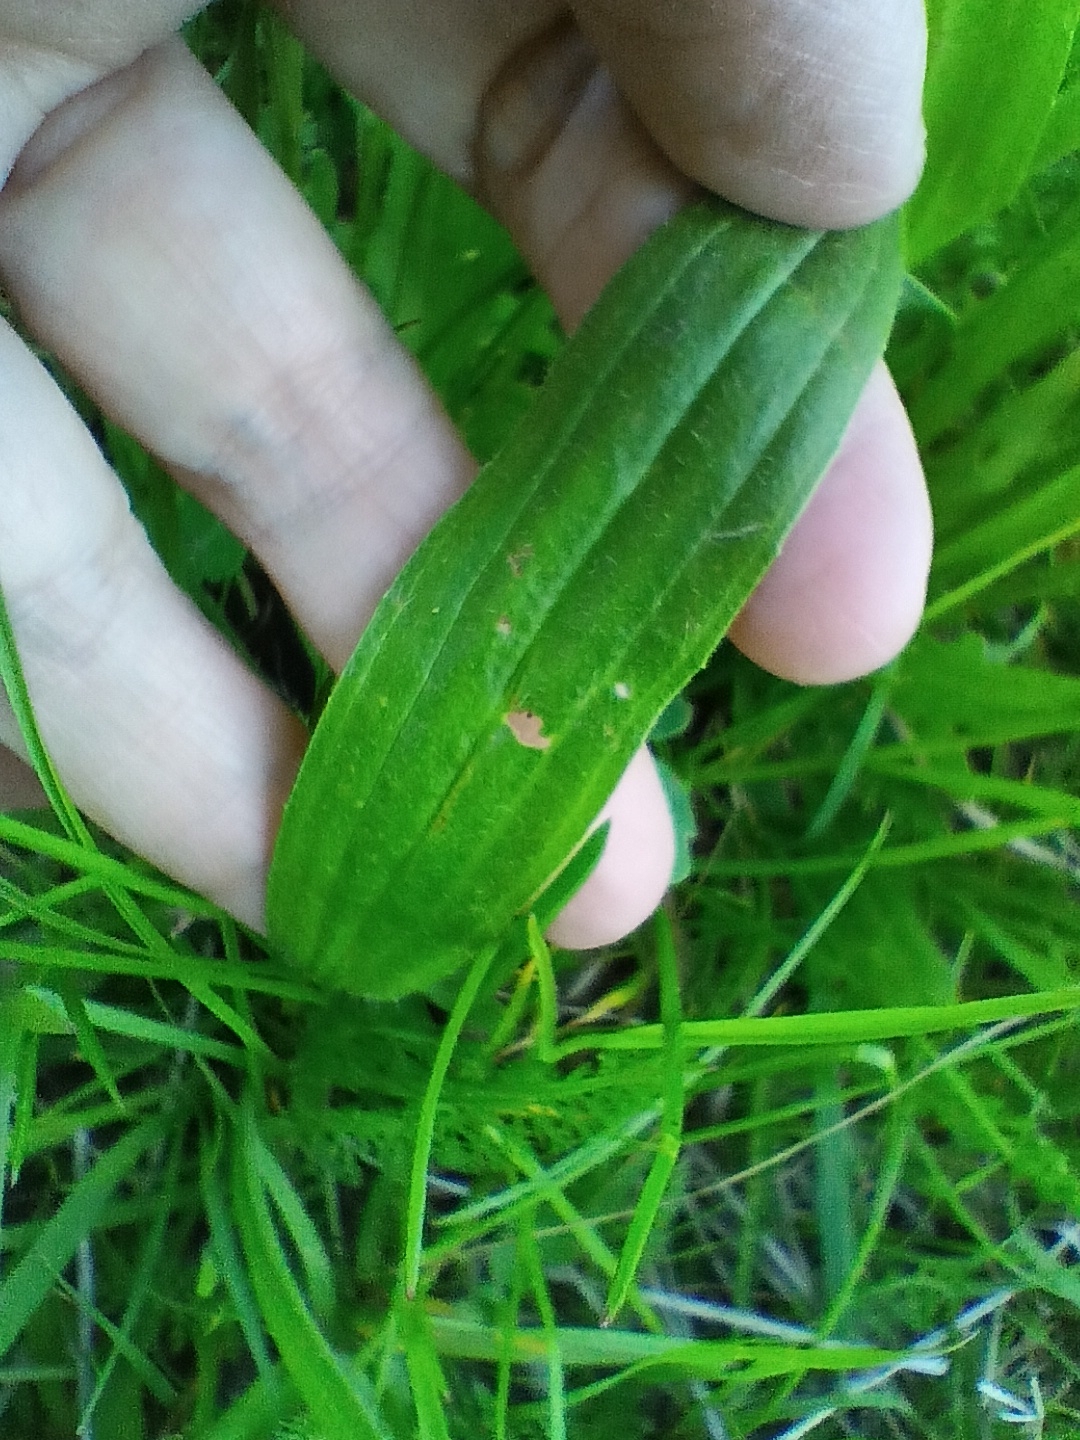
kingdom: Plantae
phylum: Tracheophyta
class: Magnoliopsida
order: Lamiales
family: Plantaginaceae
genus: Plantago
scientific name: Plantago lanceolata
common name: Ribwort plantain
